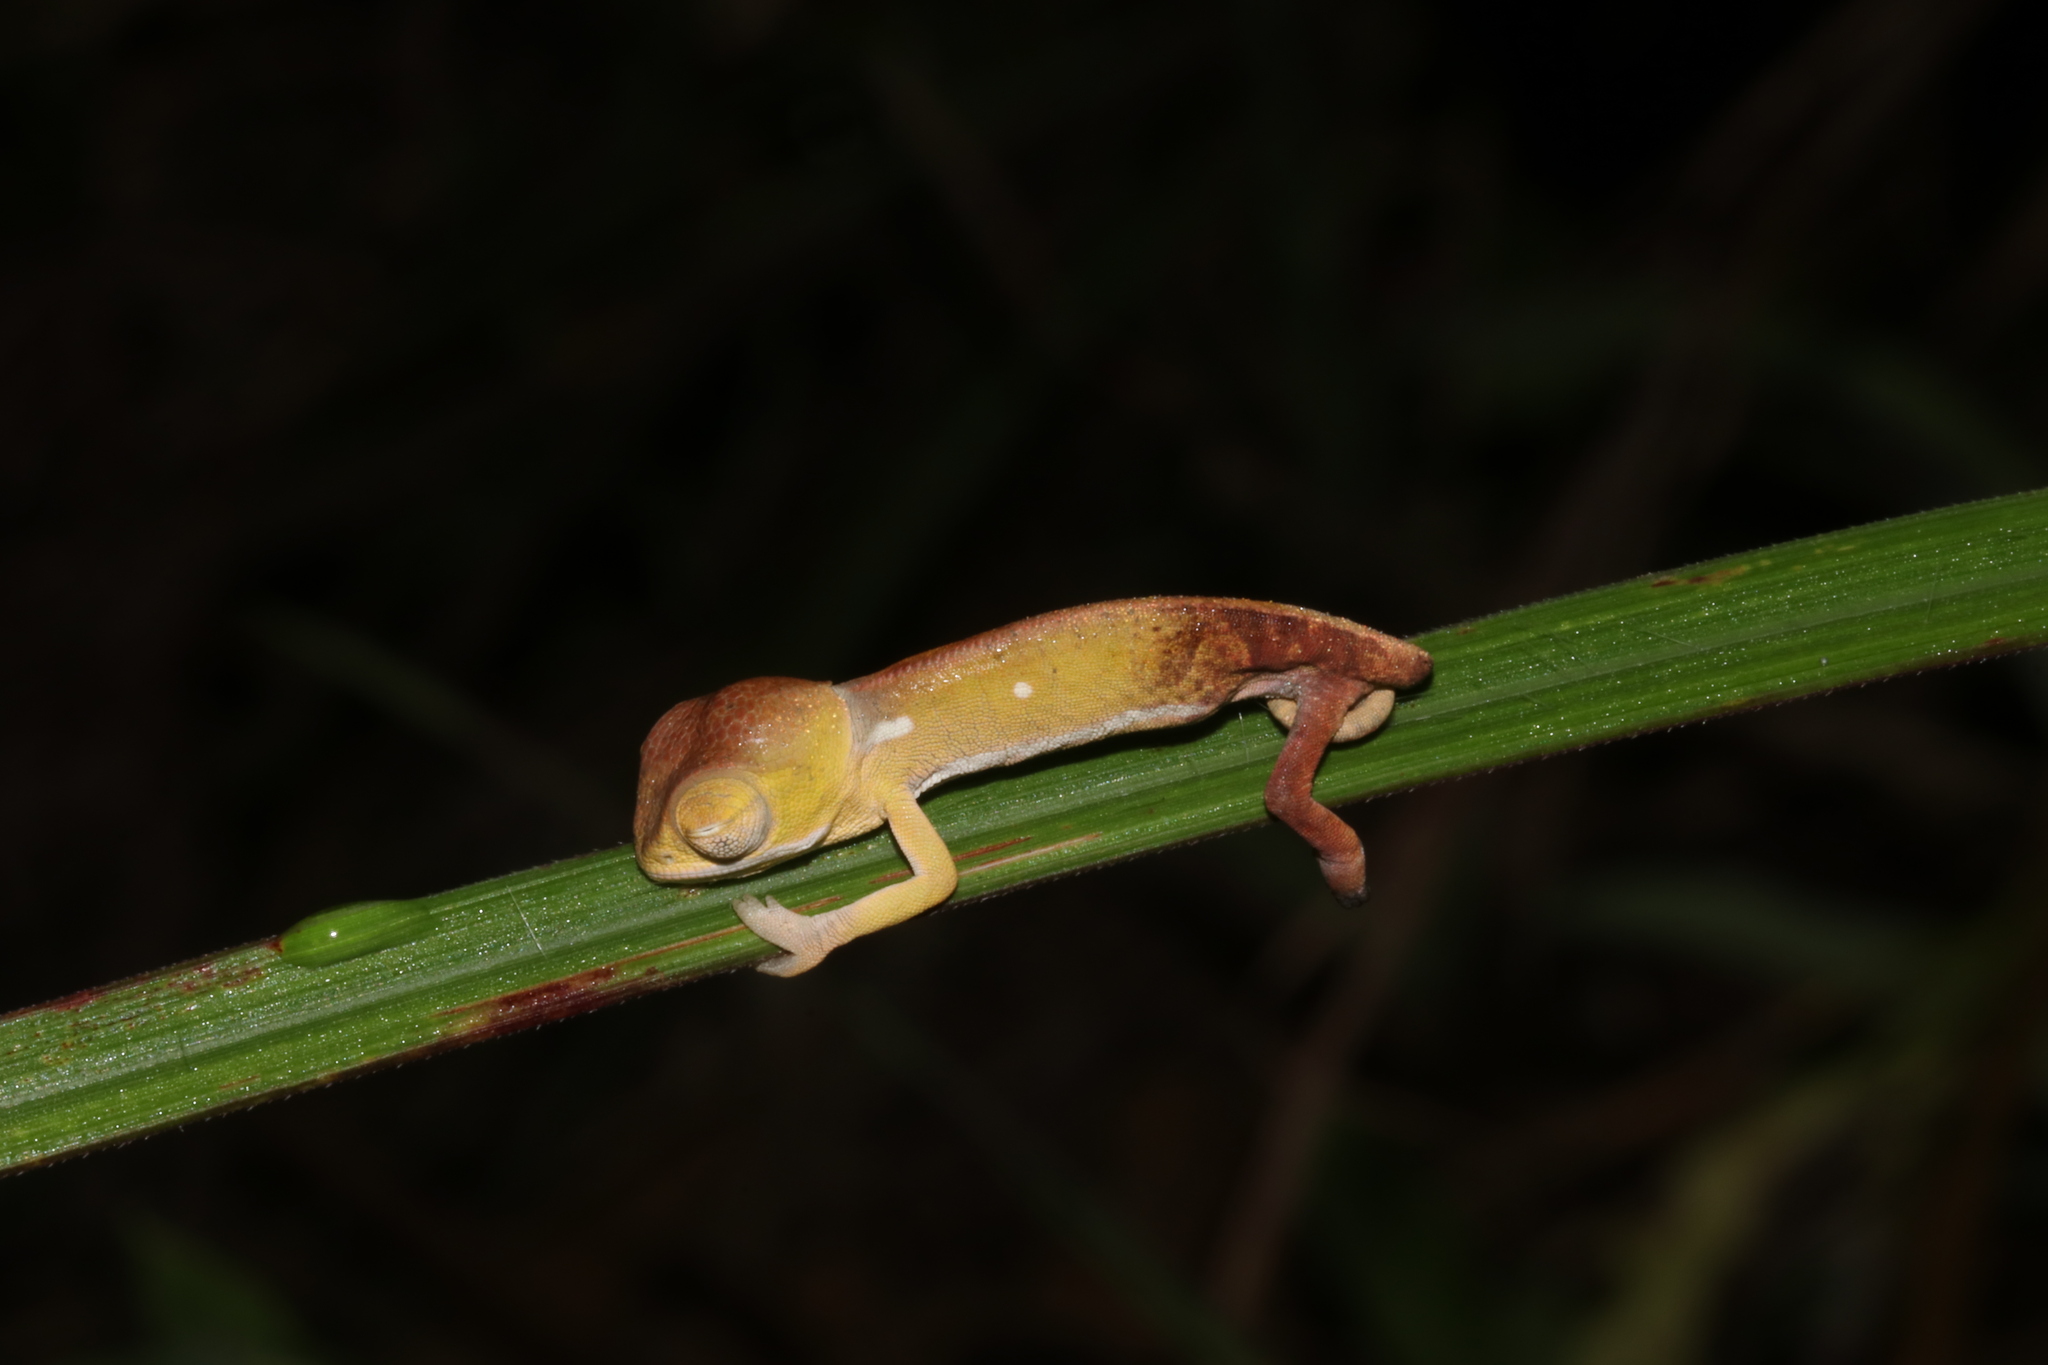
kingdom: Animalia
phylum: Chordata
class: Squamata
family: Chamaeleonidae
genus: Chamaeleo
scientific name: Chamaeleo dilepis
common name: Flapneck chameleon
